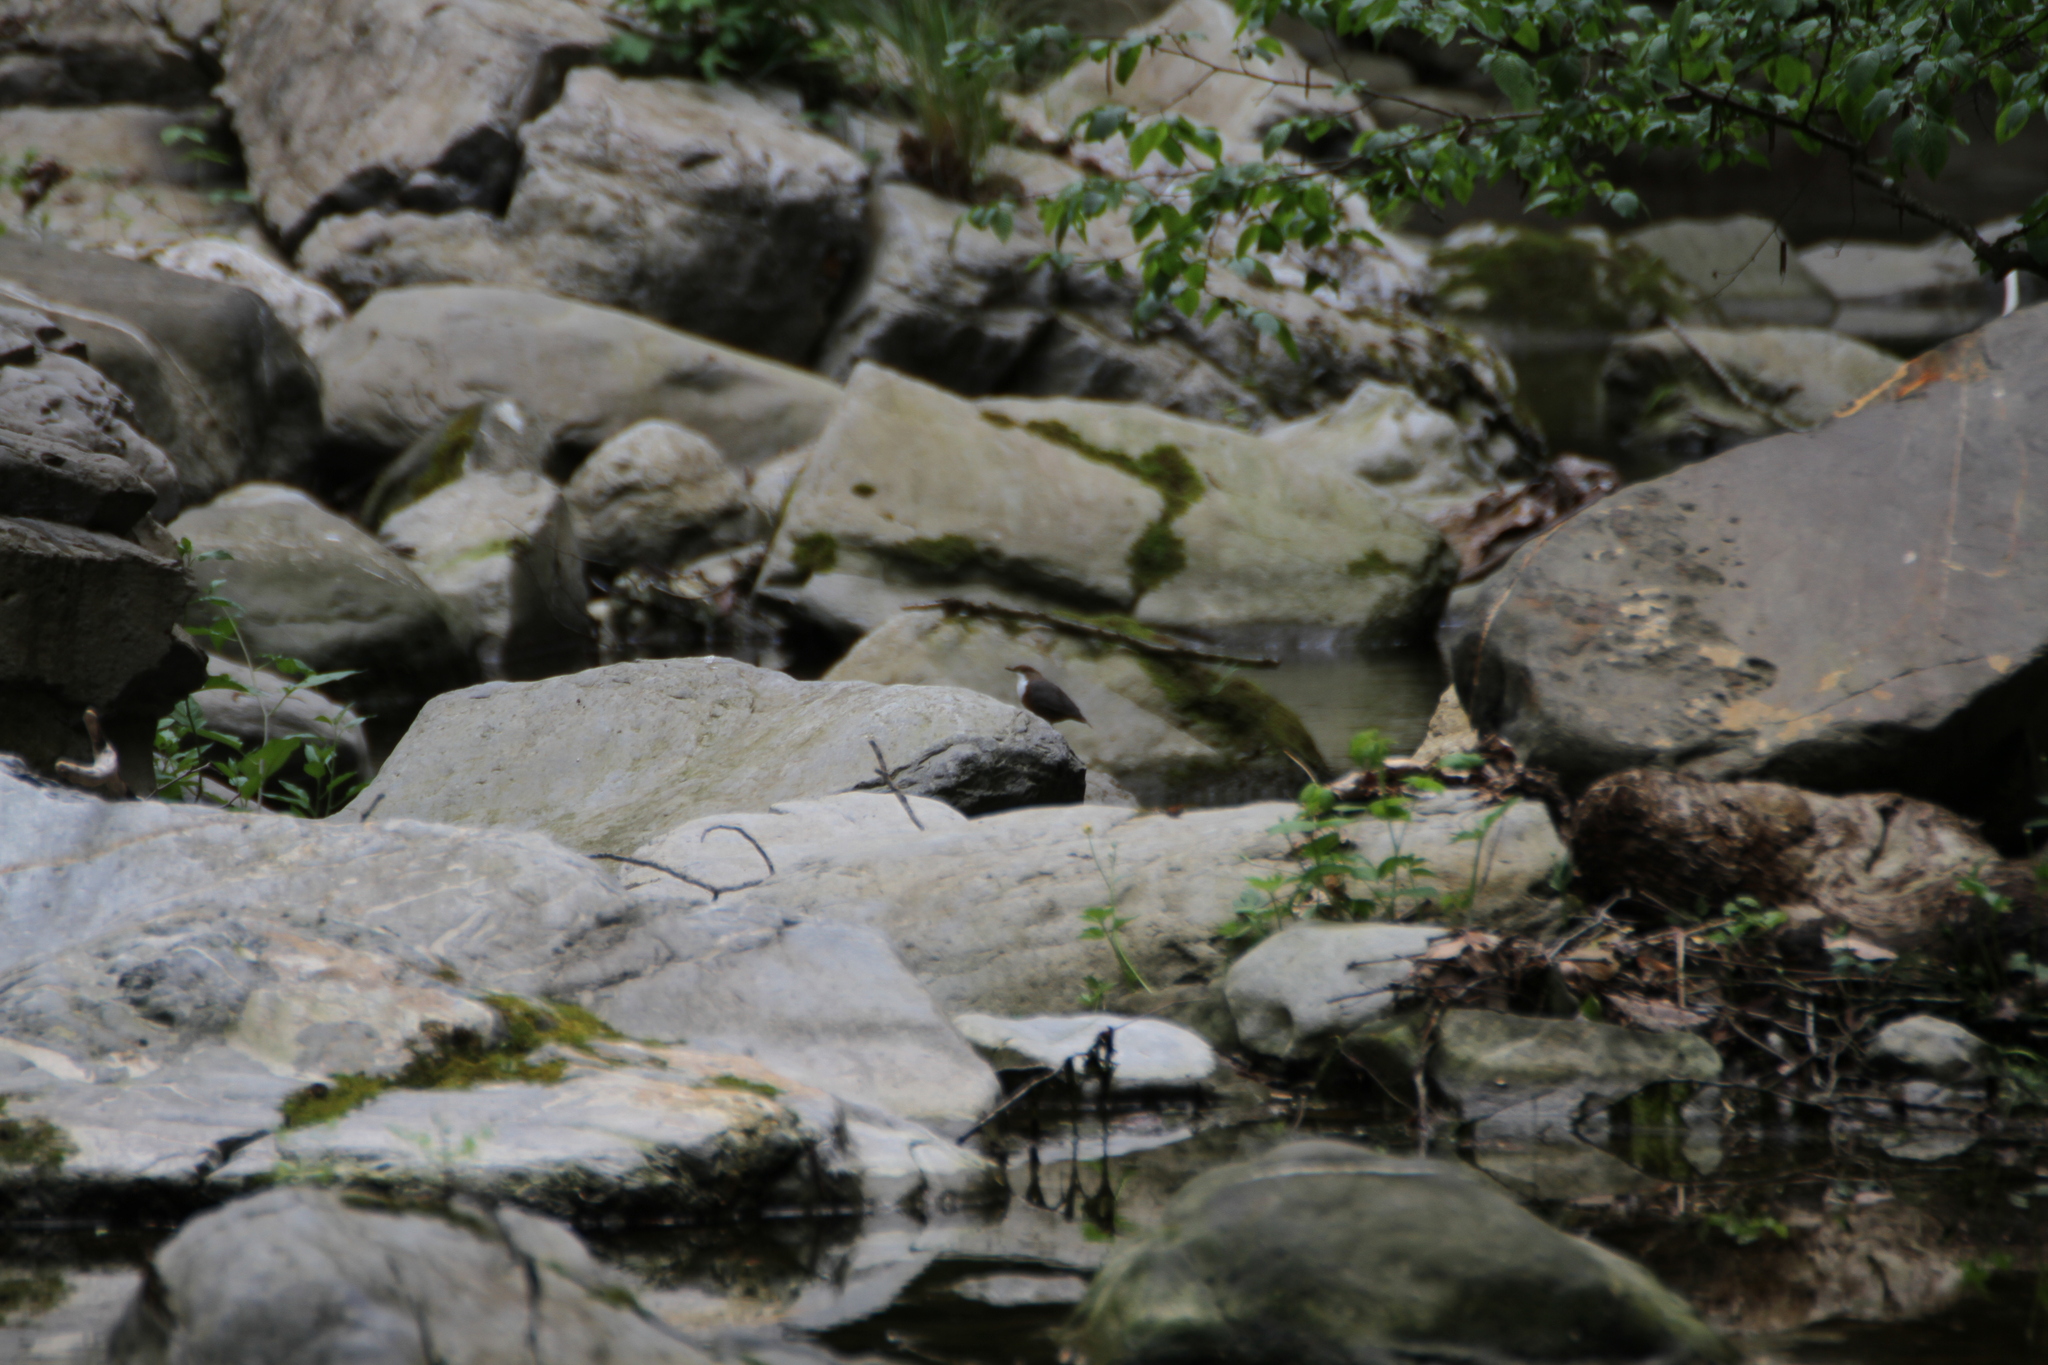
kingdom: Animalia
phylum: Chordata
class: Aves
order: Passeriformes
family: Cinclidae
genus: Cinclus
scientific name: Cinclus cinclus
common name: White-throated dipper
